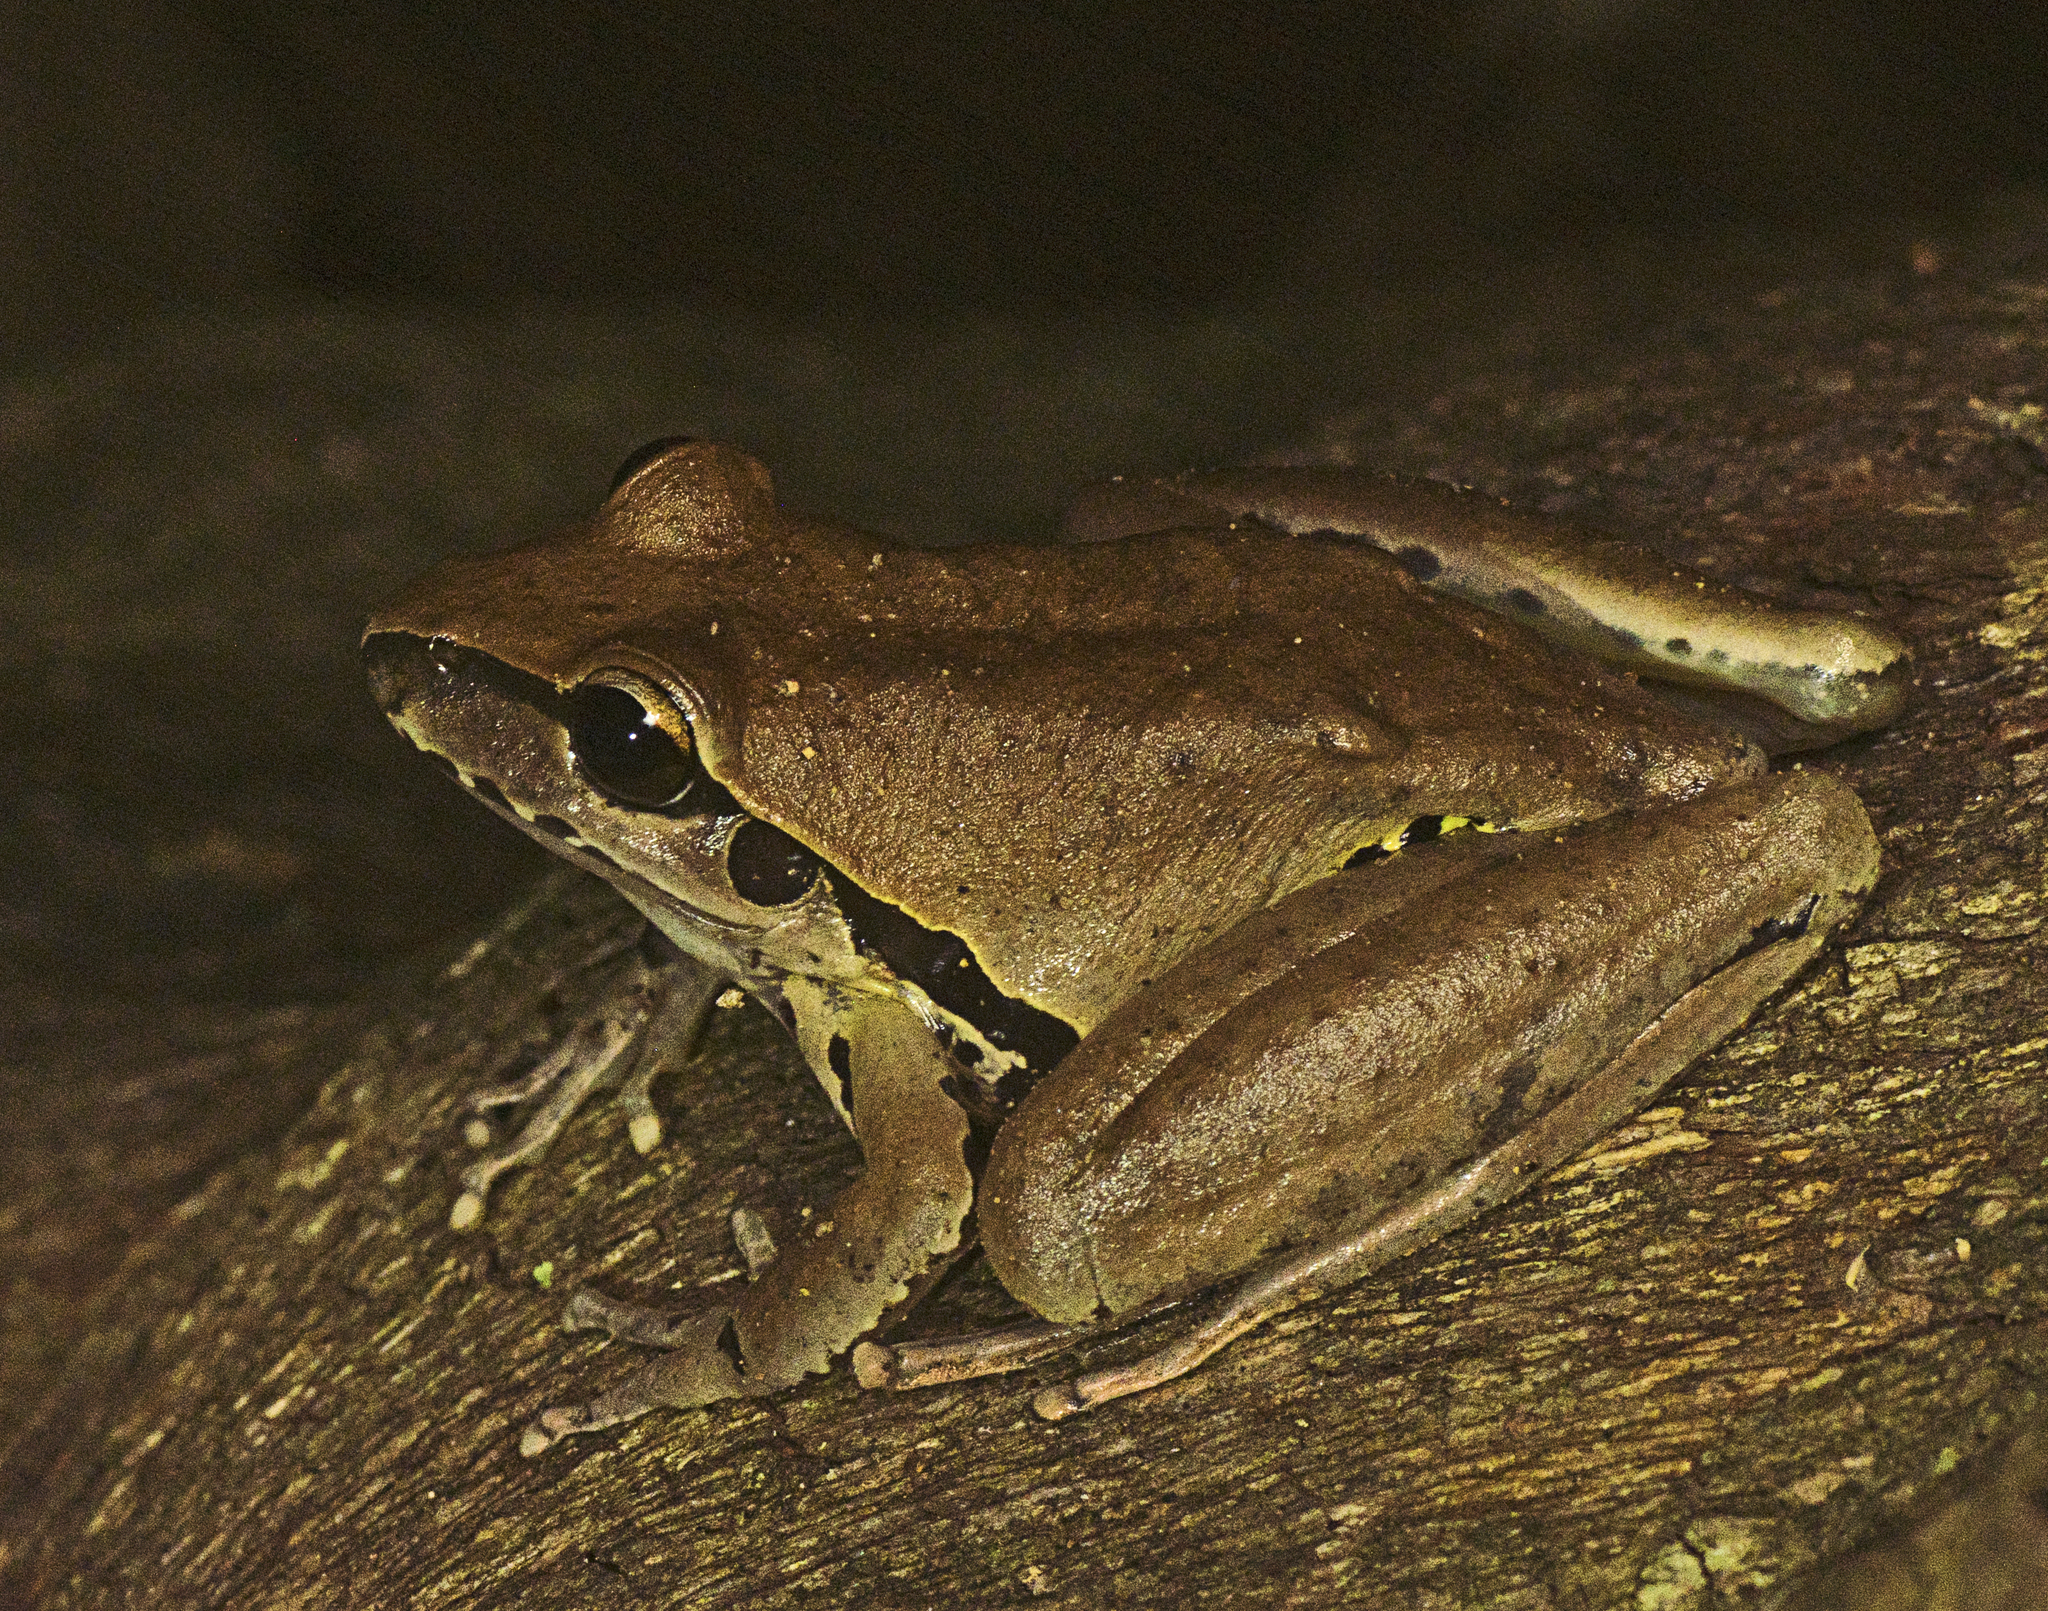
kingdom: Animalia
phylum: Chordata
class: Amphibia
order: Anura
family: Pelodryadidae
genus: Ranoidea
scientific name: Ranoidea wilcoxii
